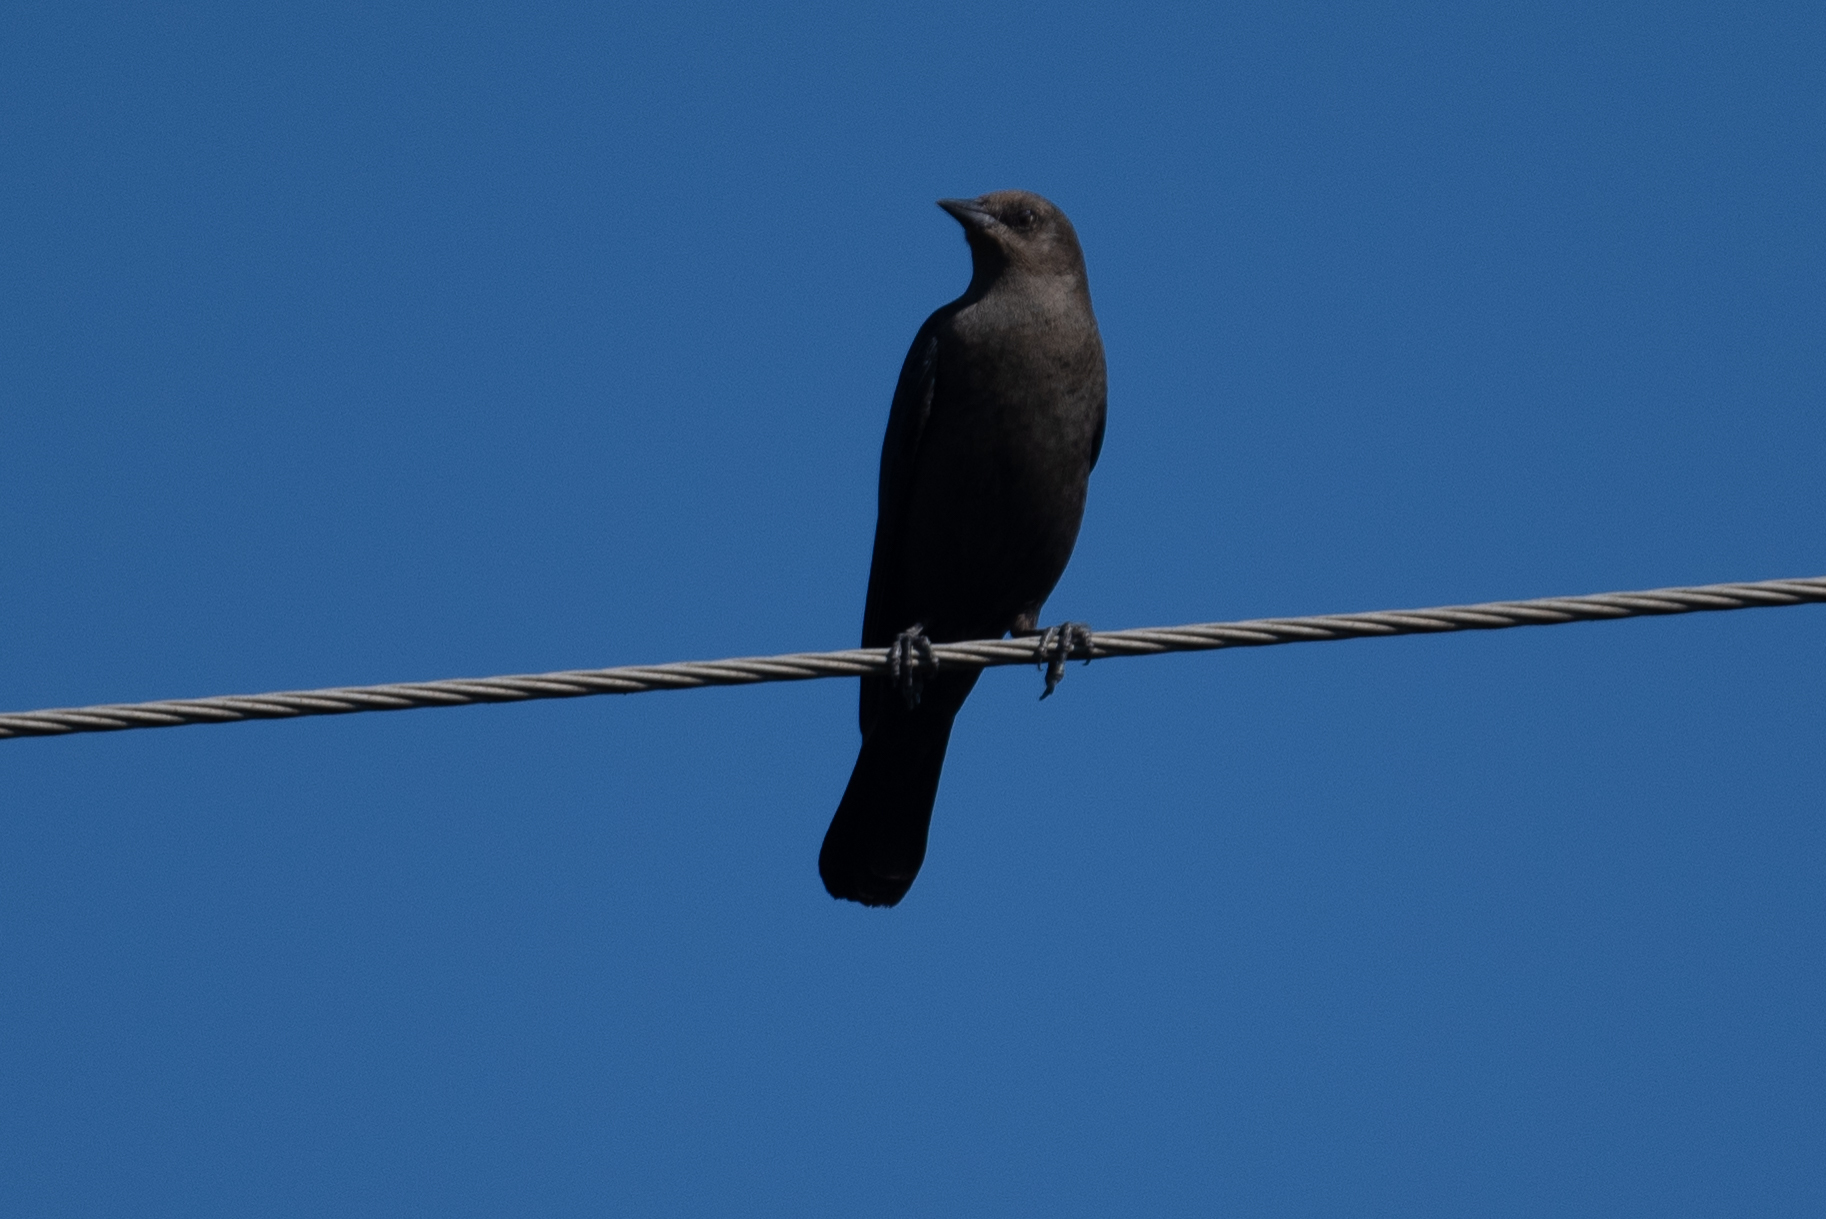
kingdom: Animalia
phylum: Chordata
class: Aves
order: Passeriformes
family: Icteridae
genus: Euphagus
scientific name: Euphagus cyanocephalus
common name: Brewer's blackbird
